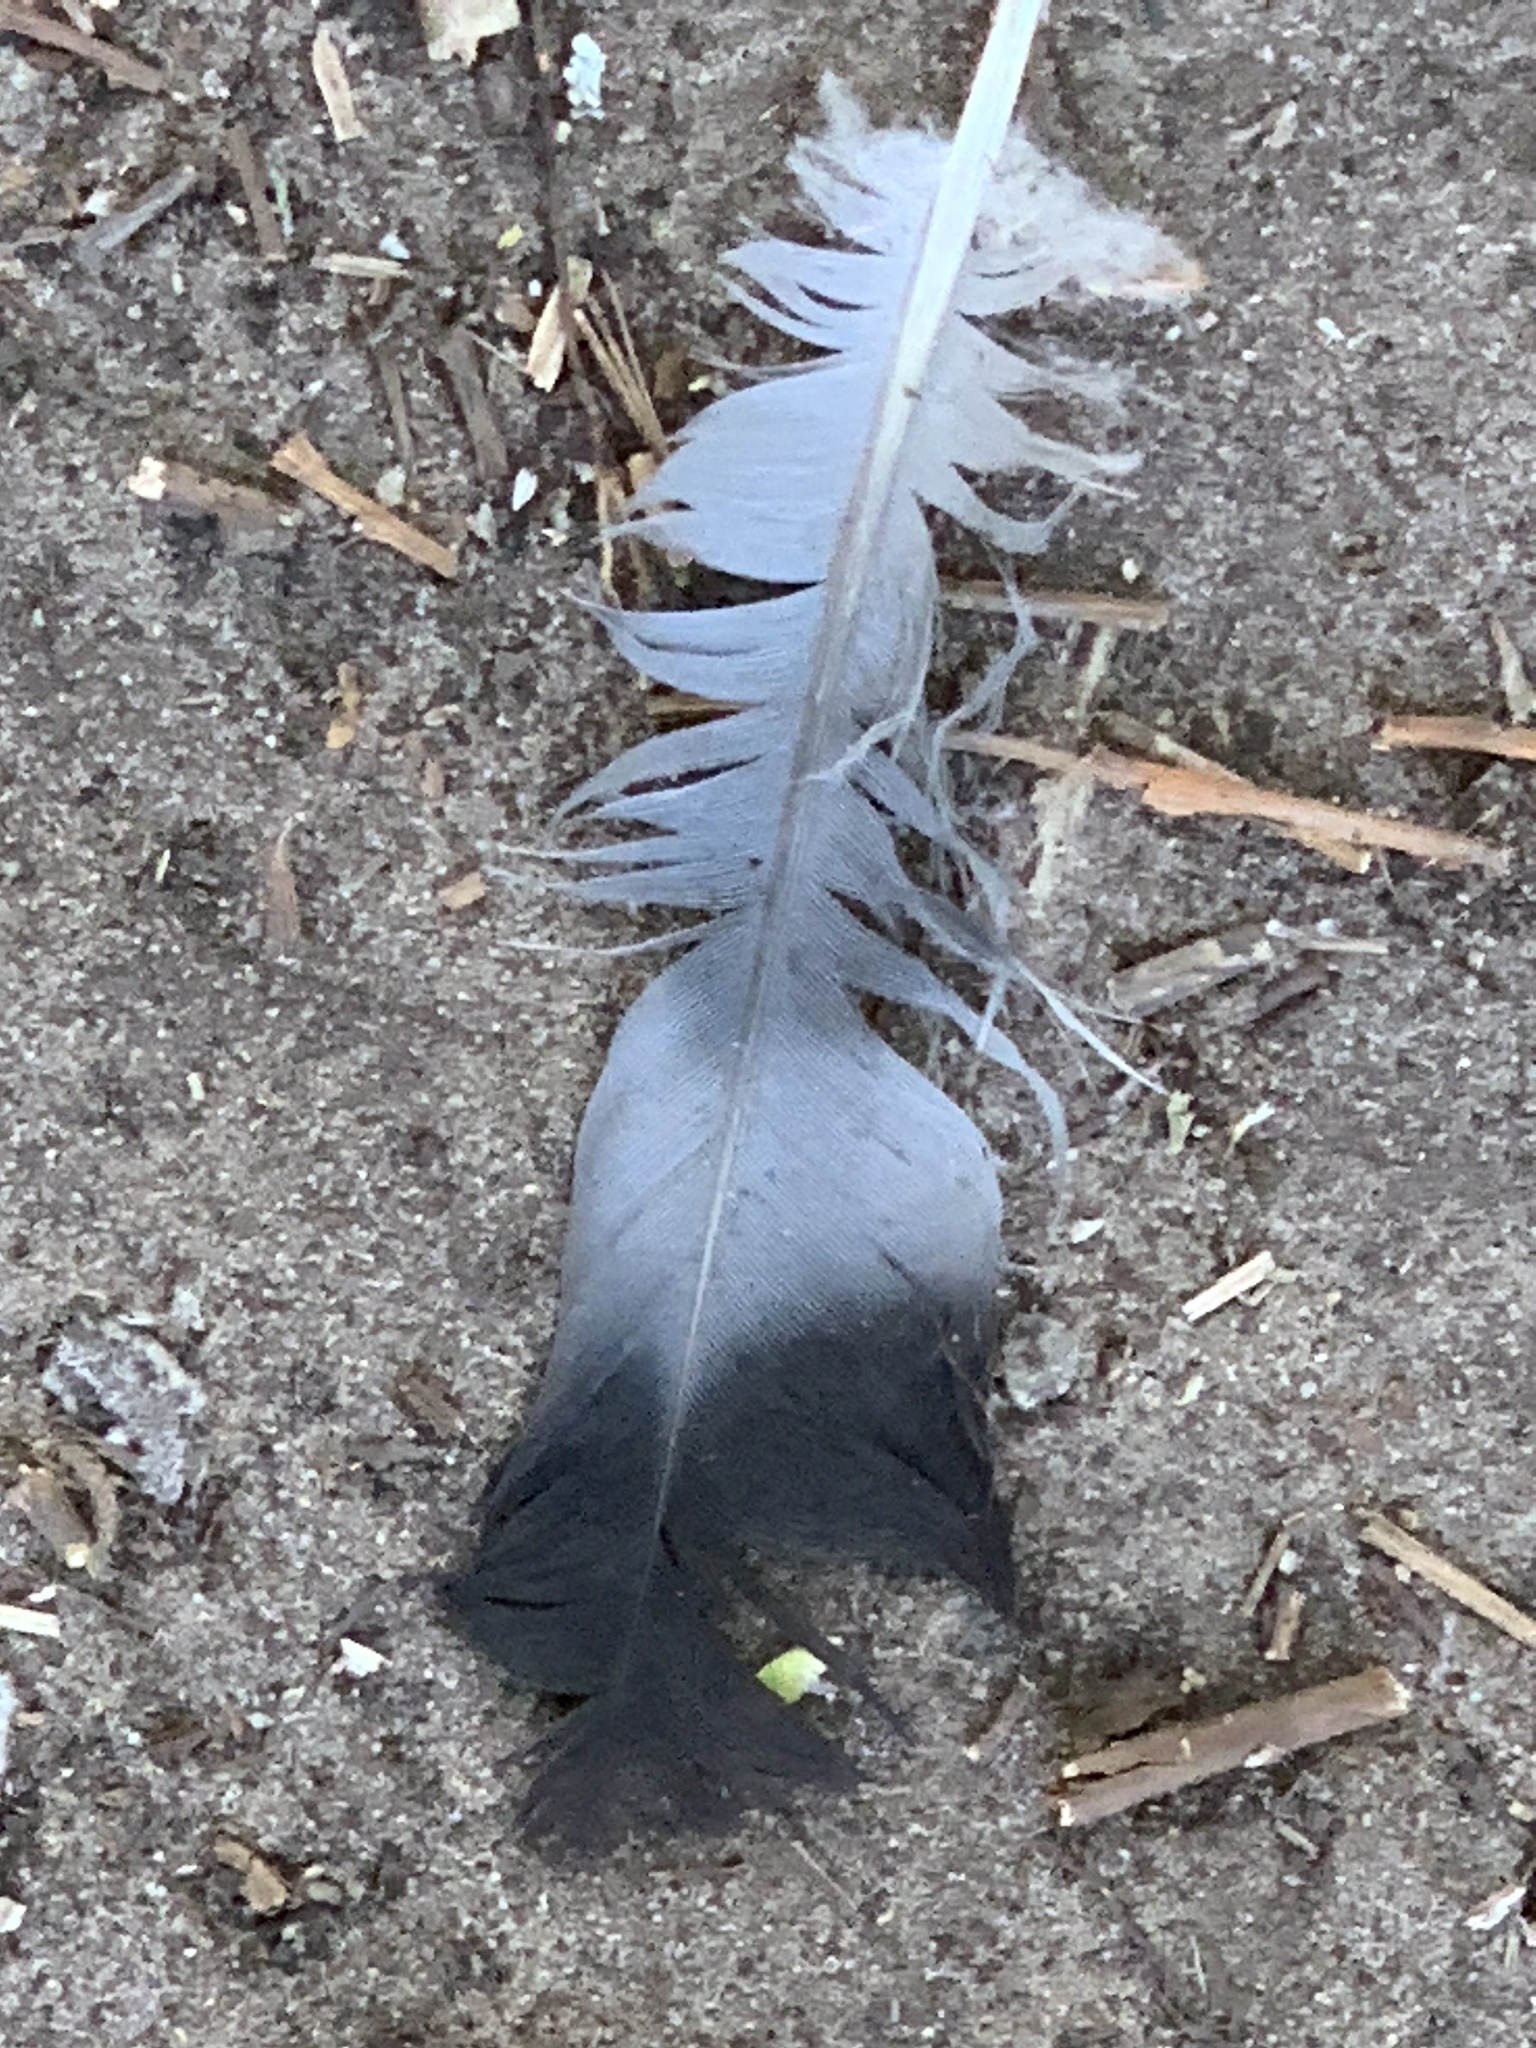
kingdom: Animalia
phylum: Chordata
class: Aves
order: Columbiformes
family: Columbidae
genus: Columba
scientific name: Columba palumbus
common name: Common wood pigeon
